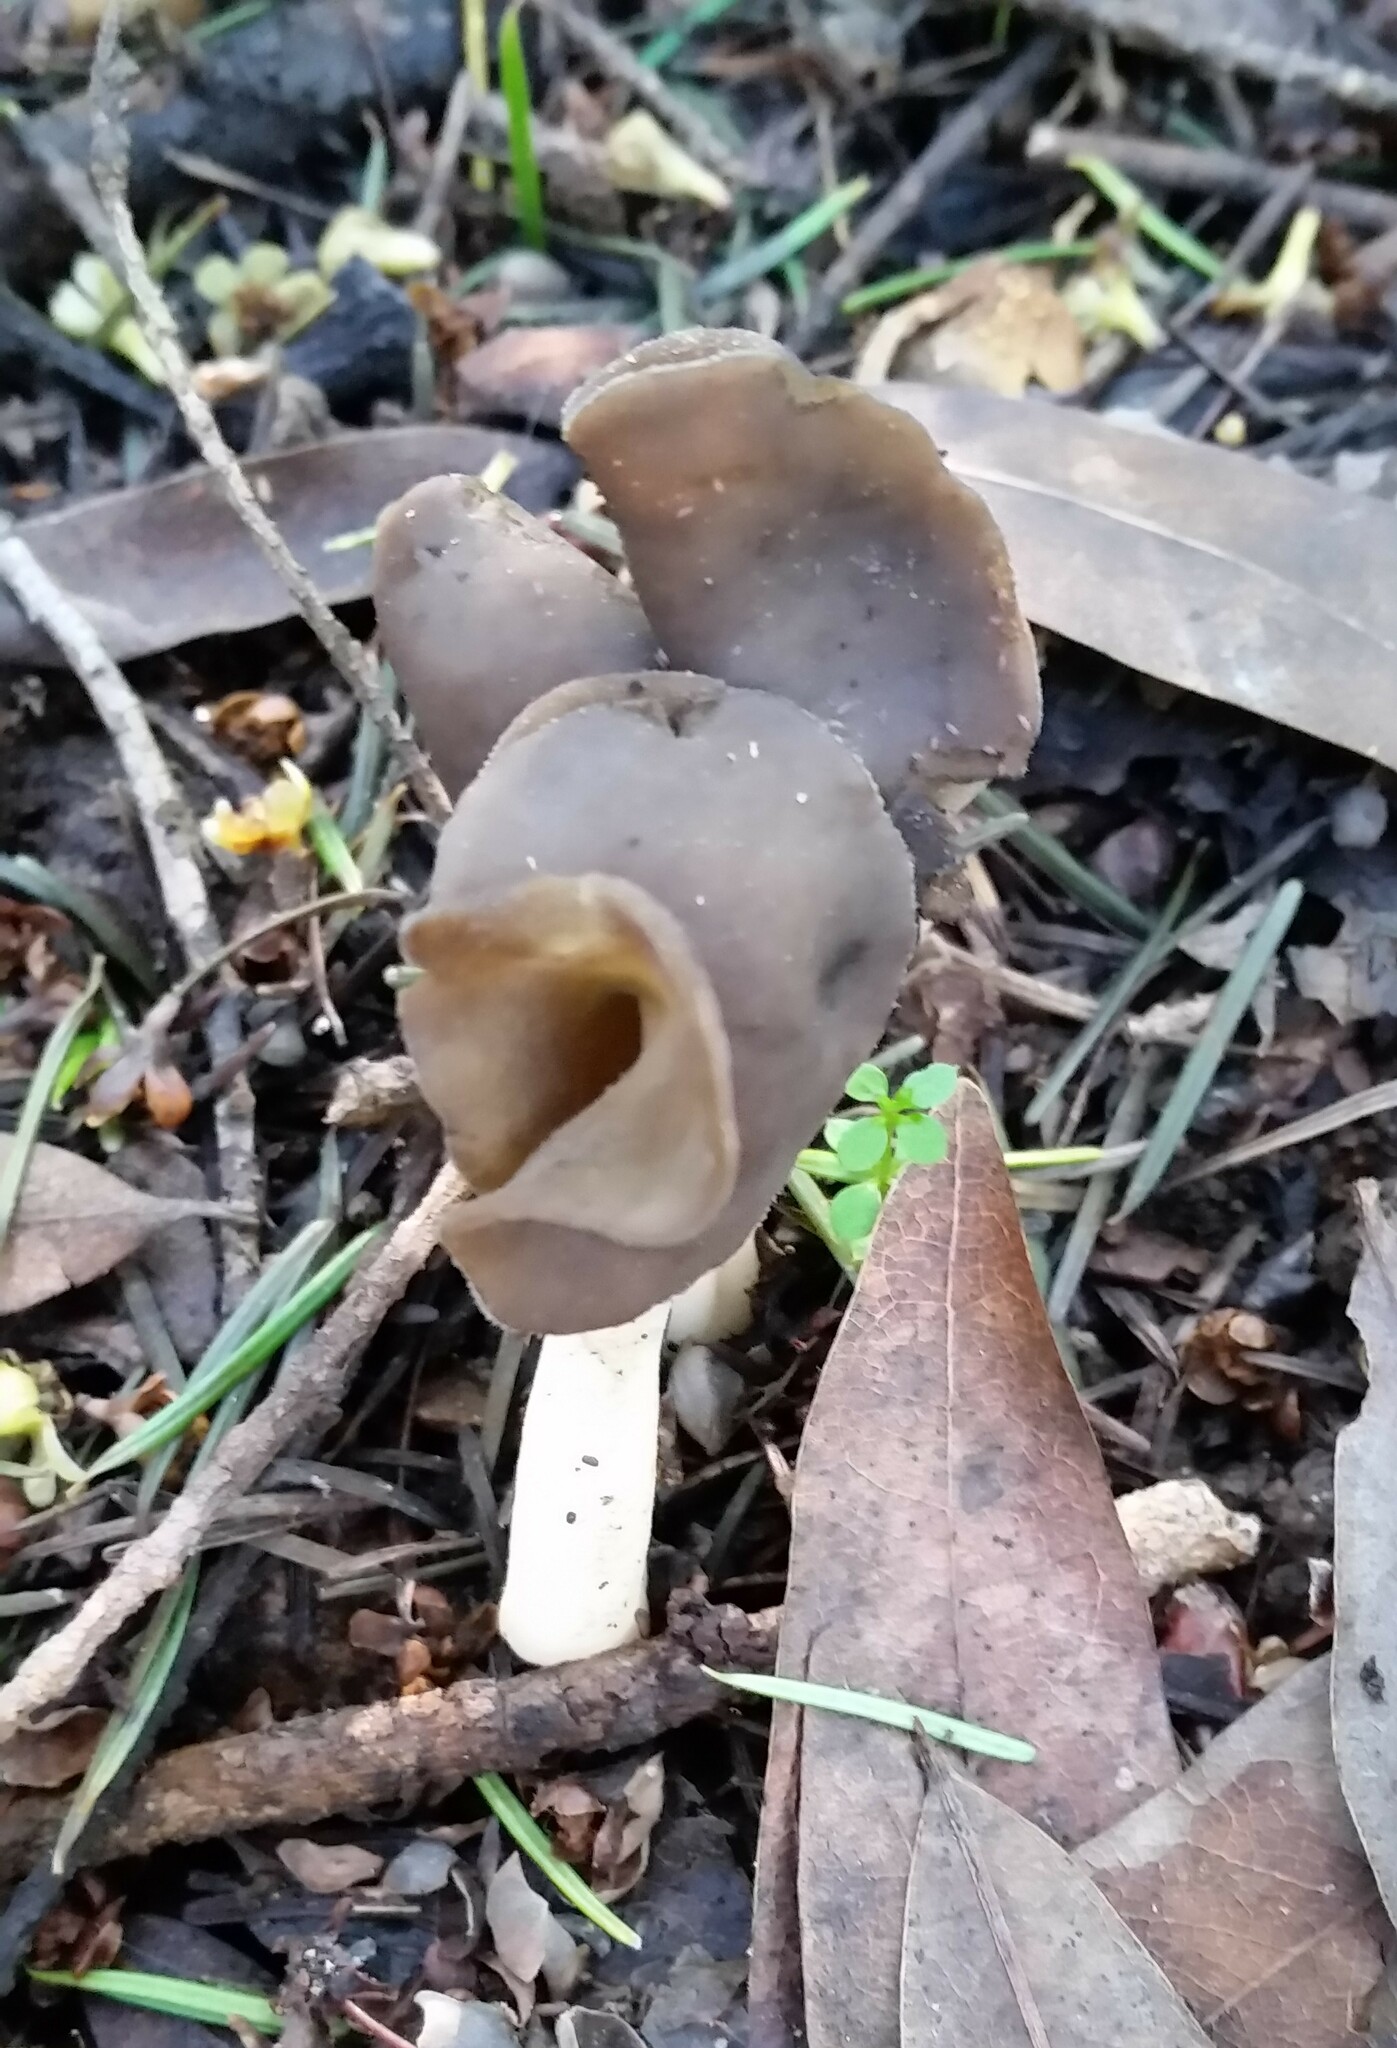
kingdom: Fungi
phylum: Ascomycota
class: Pezizomycetes
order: Pezizales
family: Helvellaceae
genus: Helvella
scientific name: Helvella compressa
